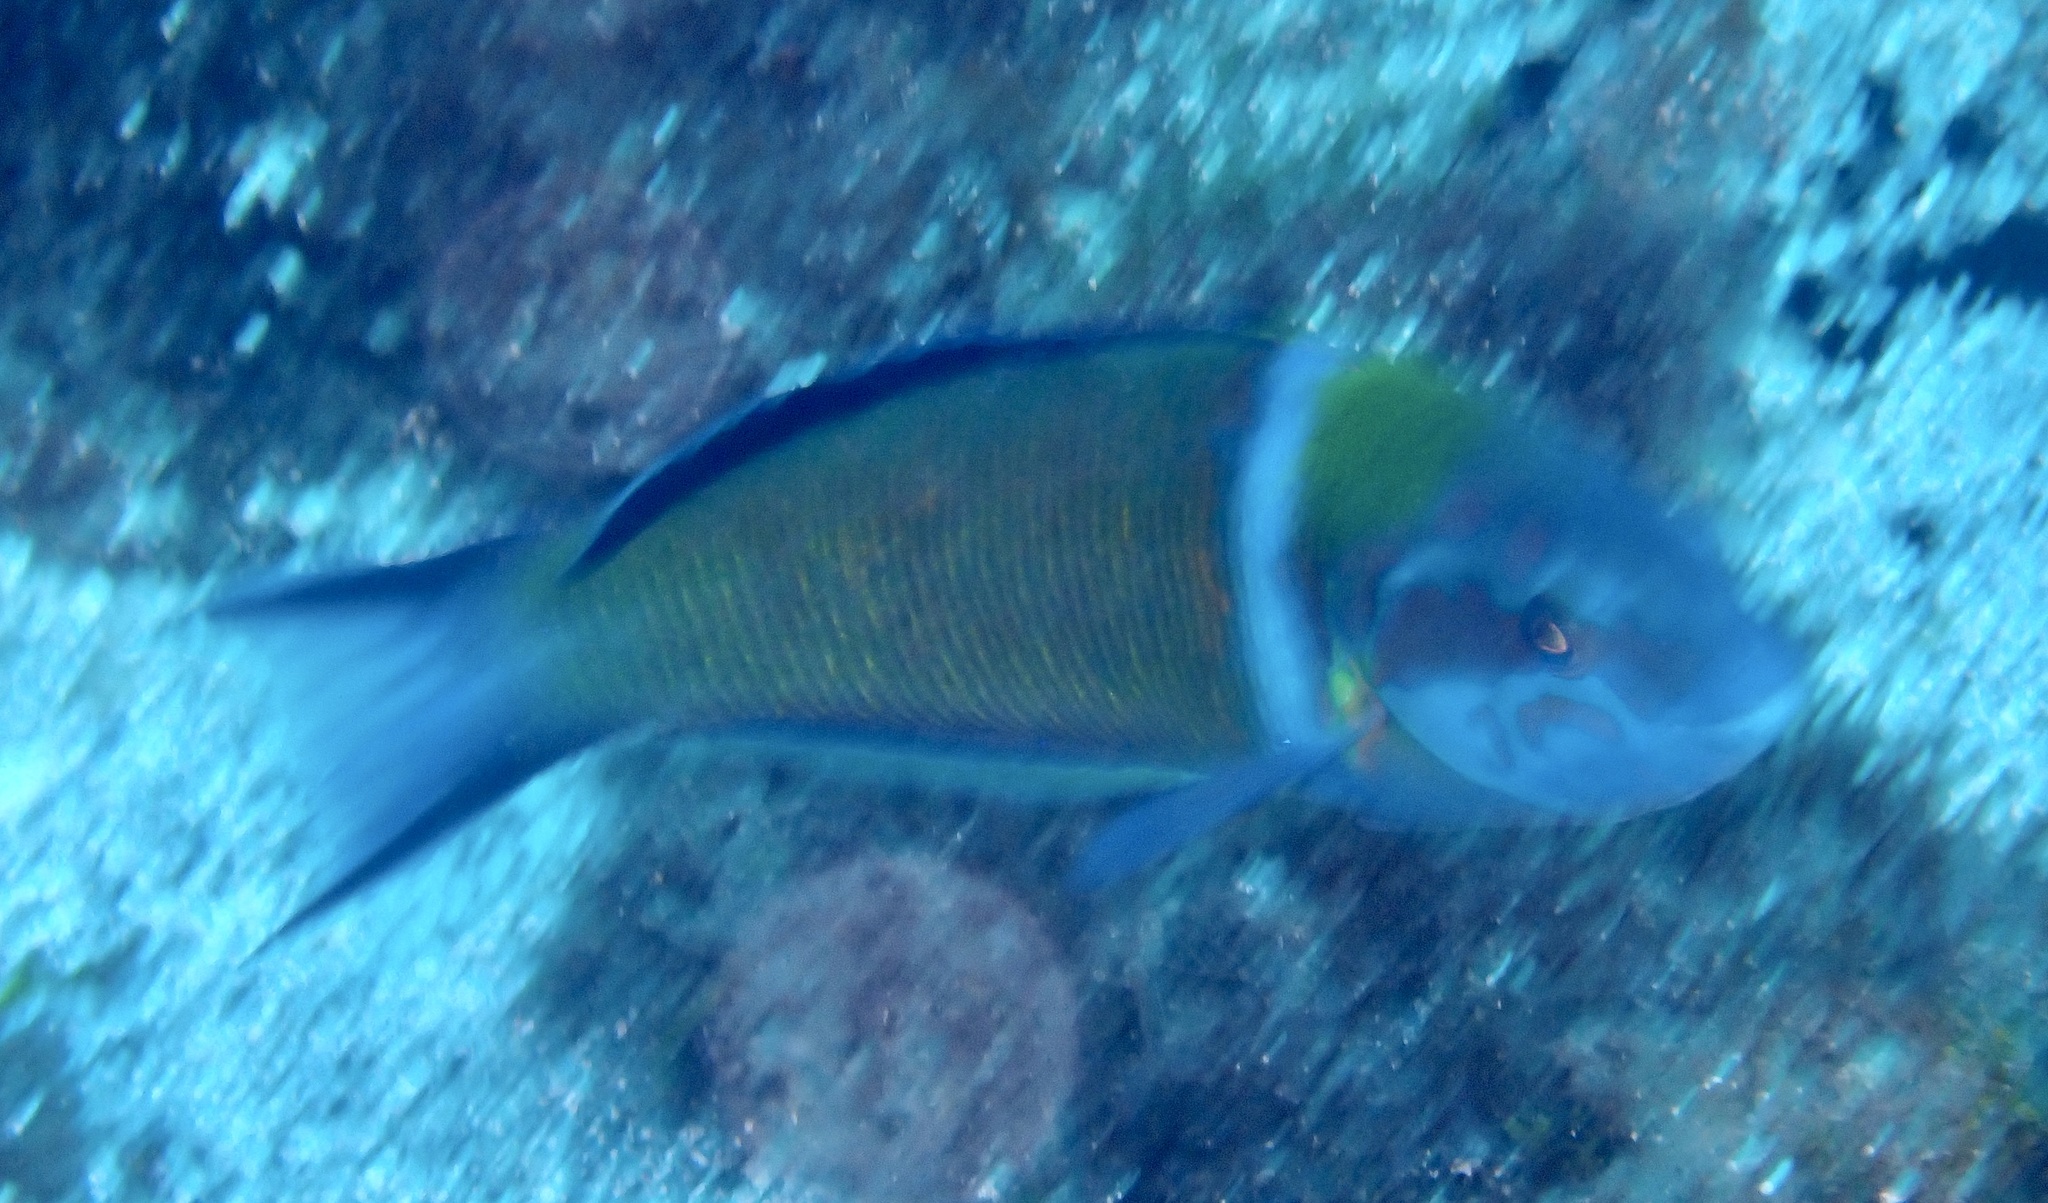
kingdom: Animalia
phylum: Chordata
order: Perciformes
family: Labridae
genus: Thalassoma
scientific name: Thalassoma pavo
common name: Ornate wrasse
